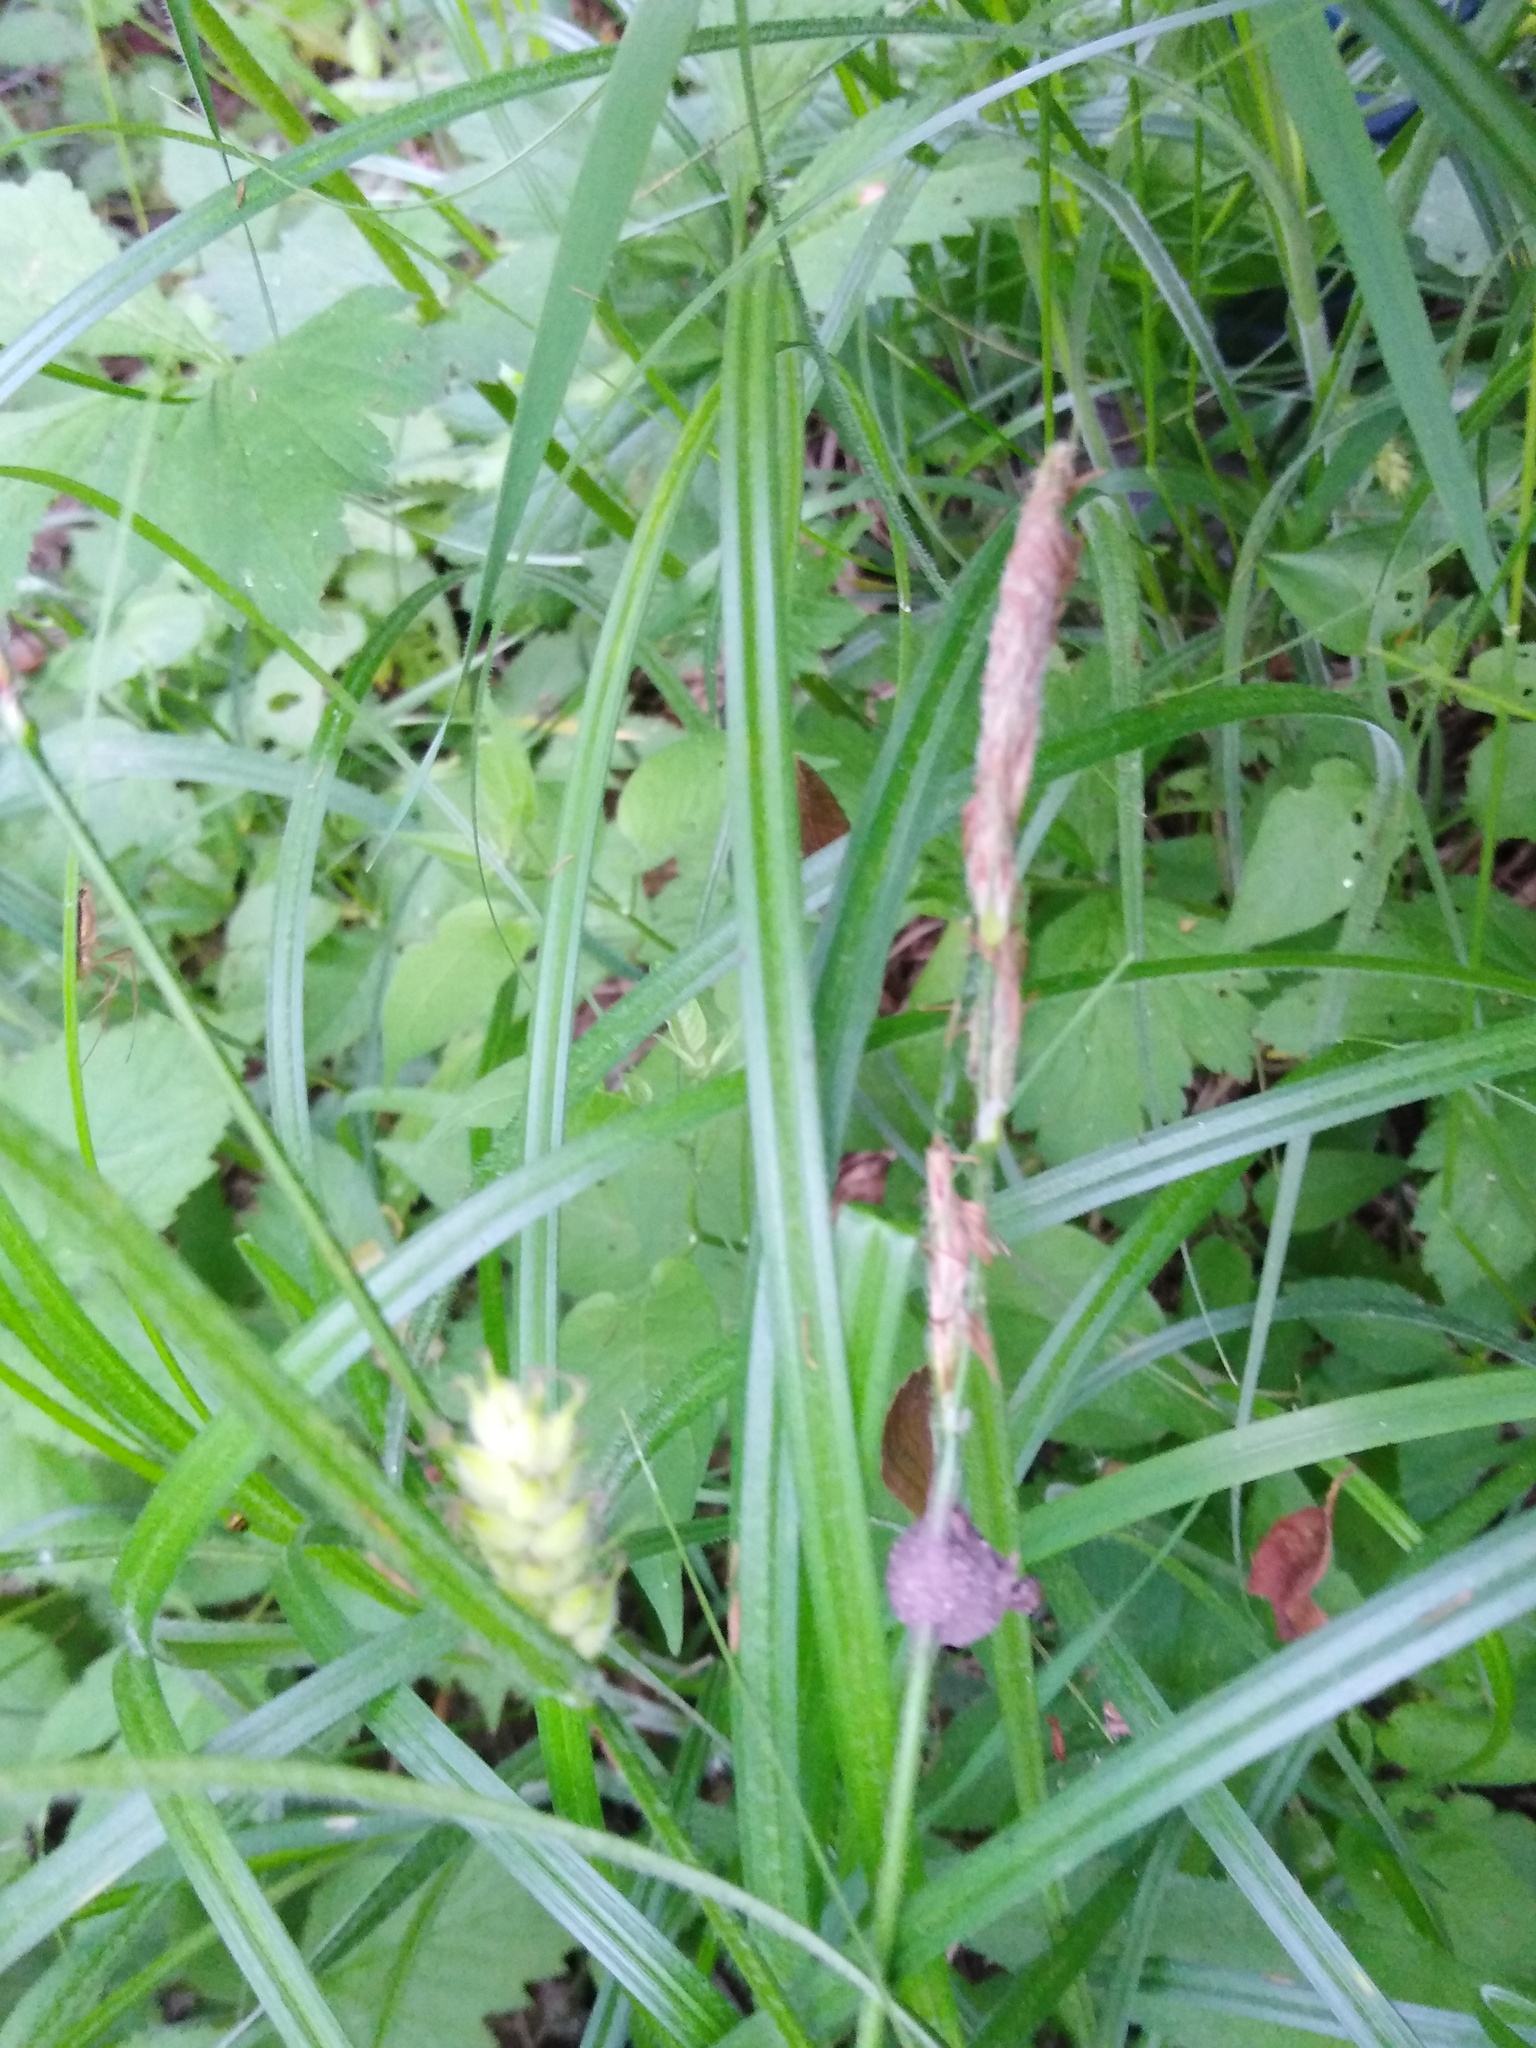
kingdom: Plantae
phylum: Tracheophyta
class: Liliopsida
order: Poales
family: Cyperaceae
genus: Carex
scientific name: Carex hirta
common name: Hairy sedge
